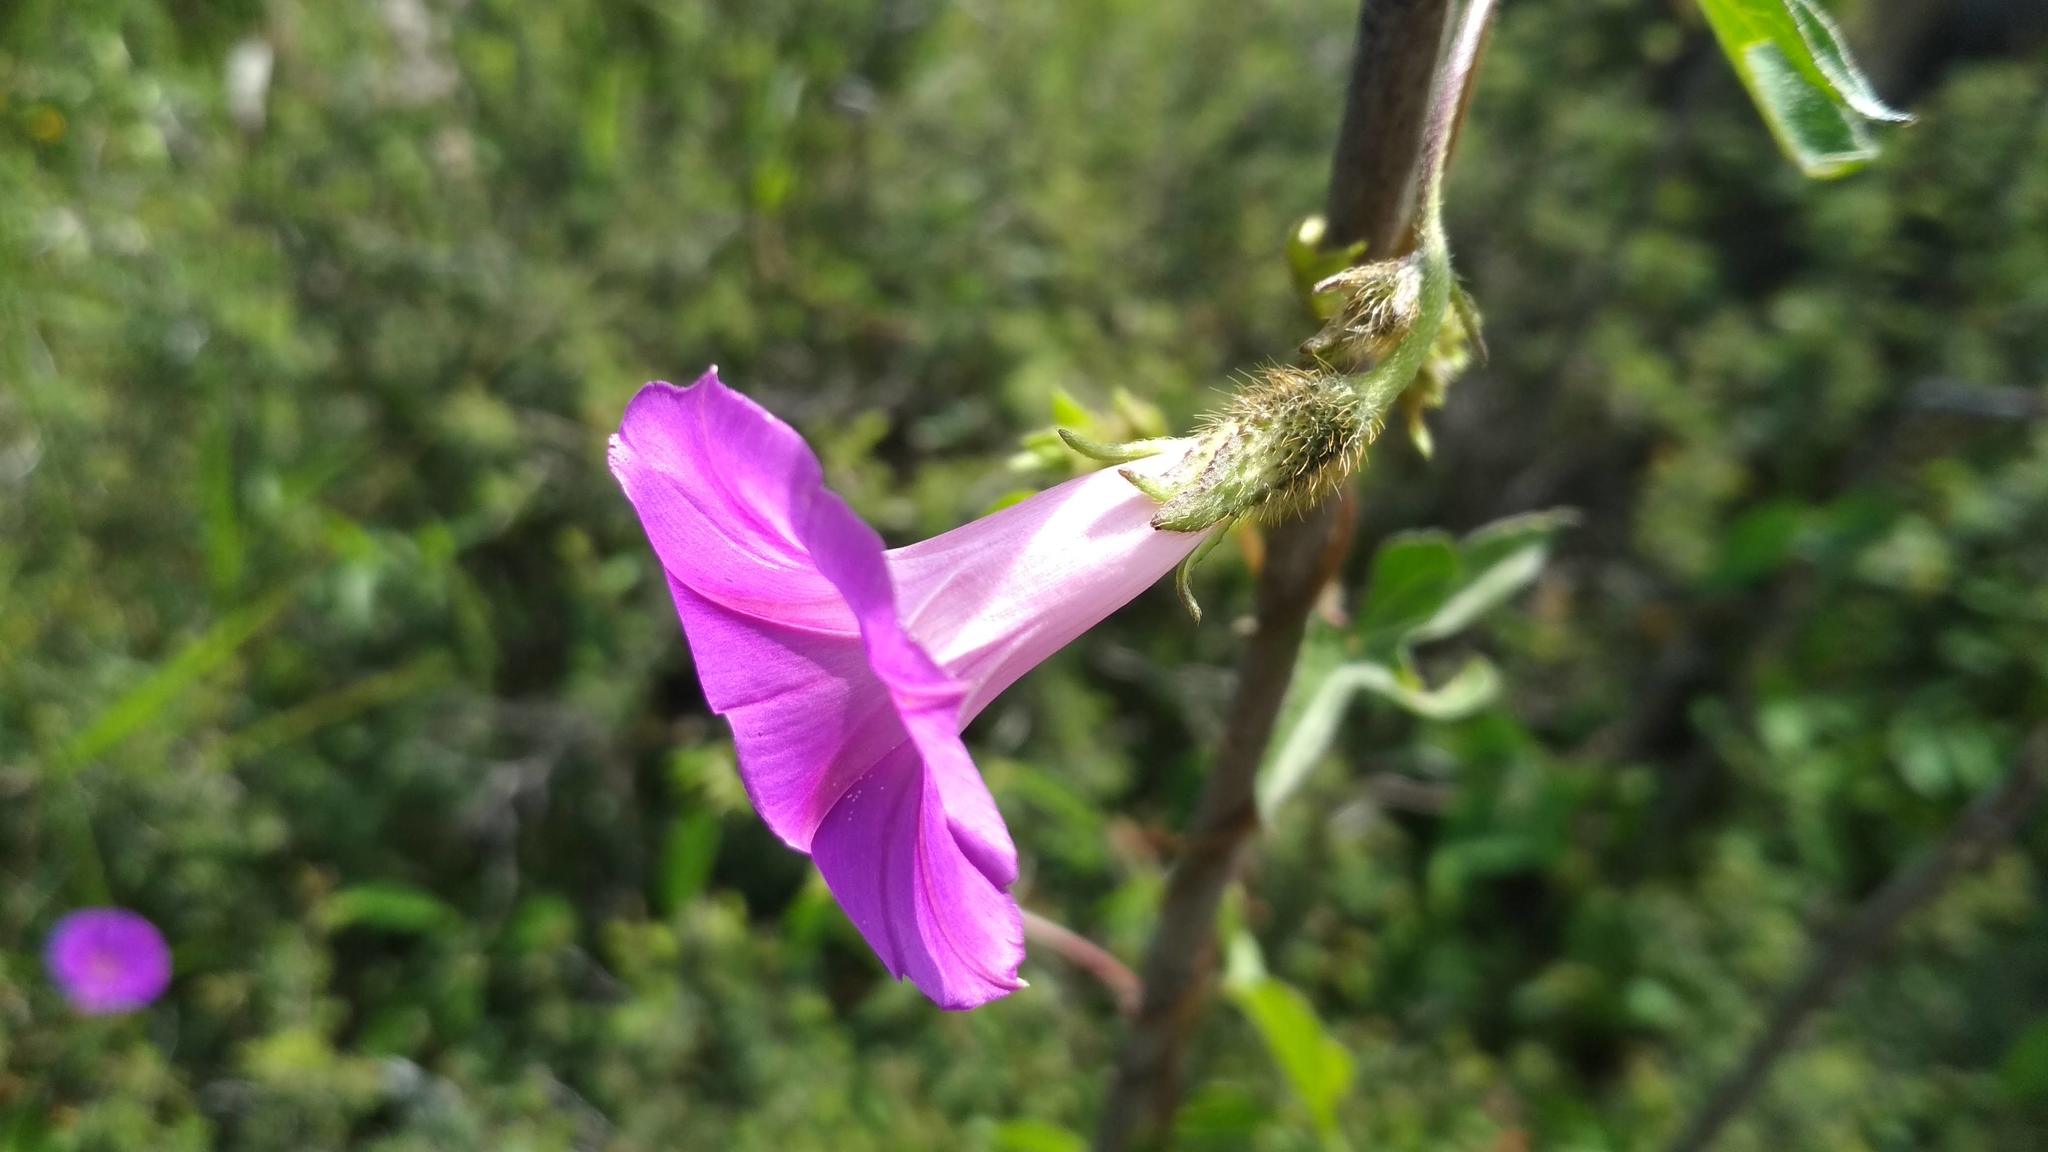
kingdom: Plantae
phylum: Tracheophyta
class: Magnoliopsida
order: Solanales
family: Convolvulaceae
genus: Ipomoea
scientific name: Ipomoea purpurea
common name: Common morning-glory
